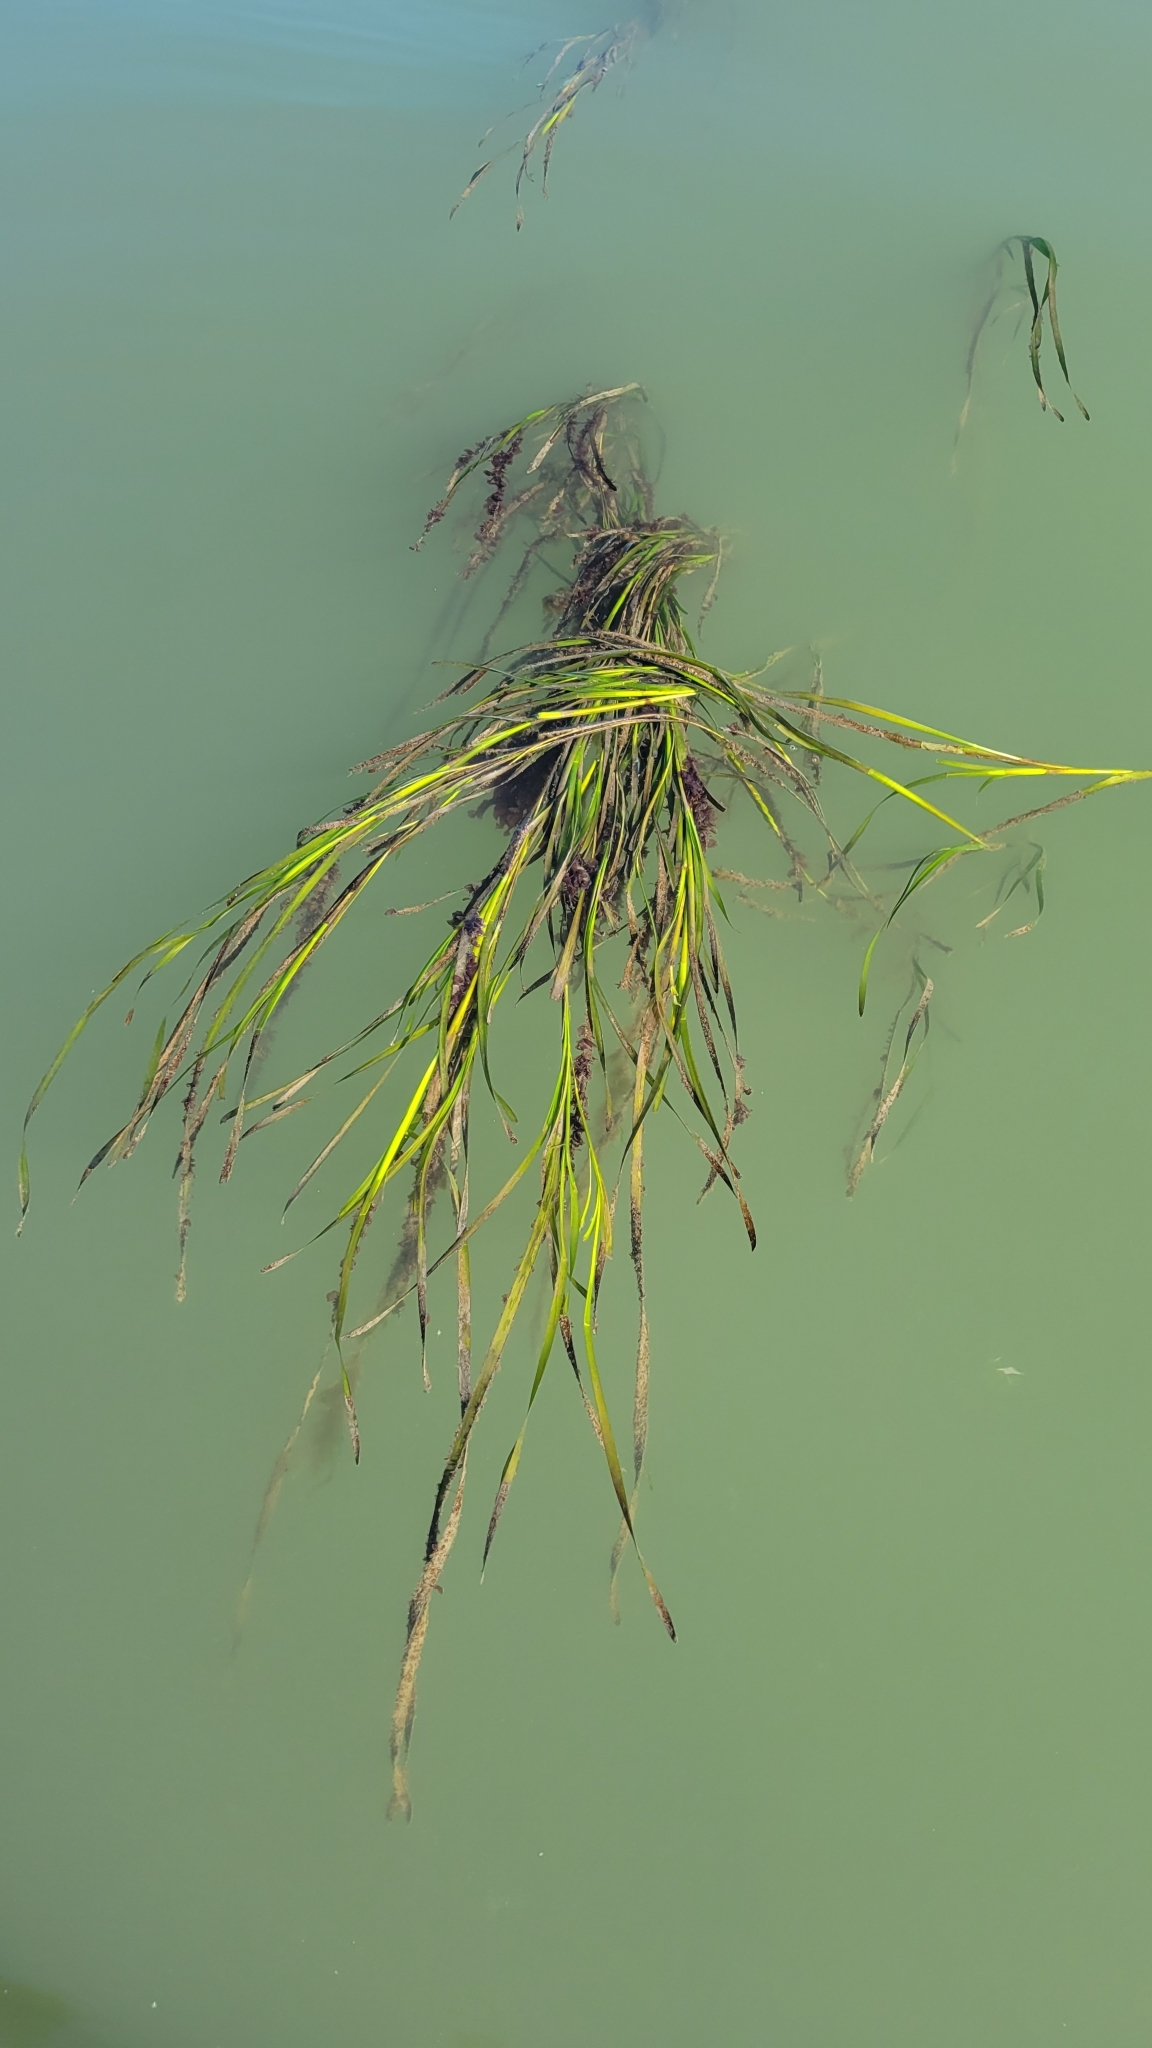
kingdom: Plantae
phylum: Tracheophyta
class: Liliopsida
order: Alismatales
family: Zosteraceae
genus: Zostera
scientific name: Zostera marina
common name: Eelgrass
